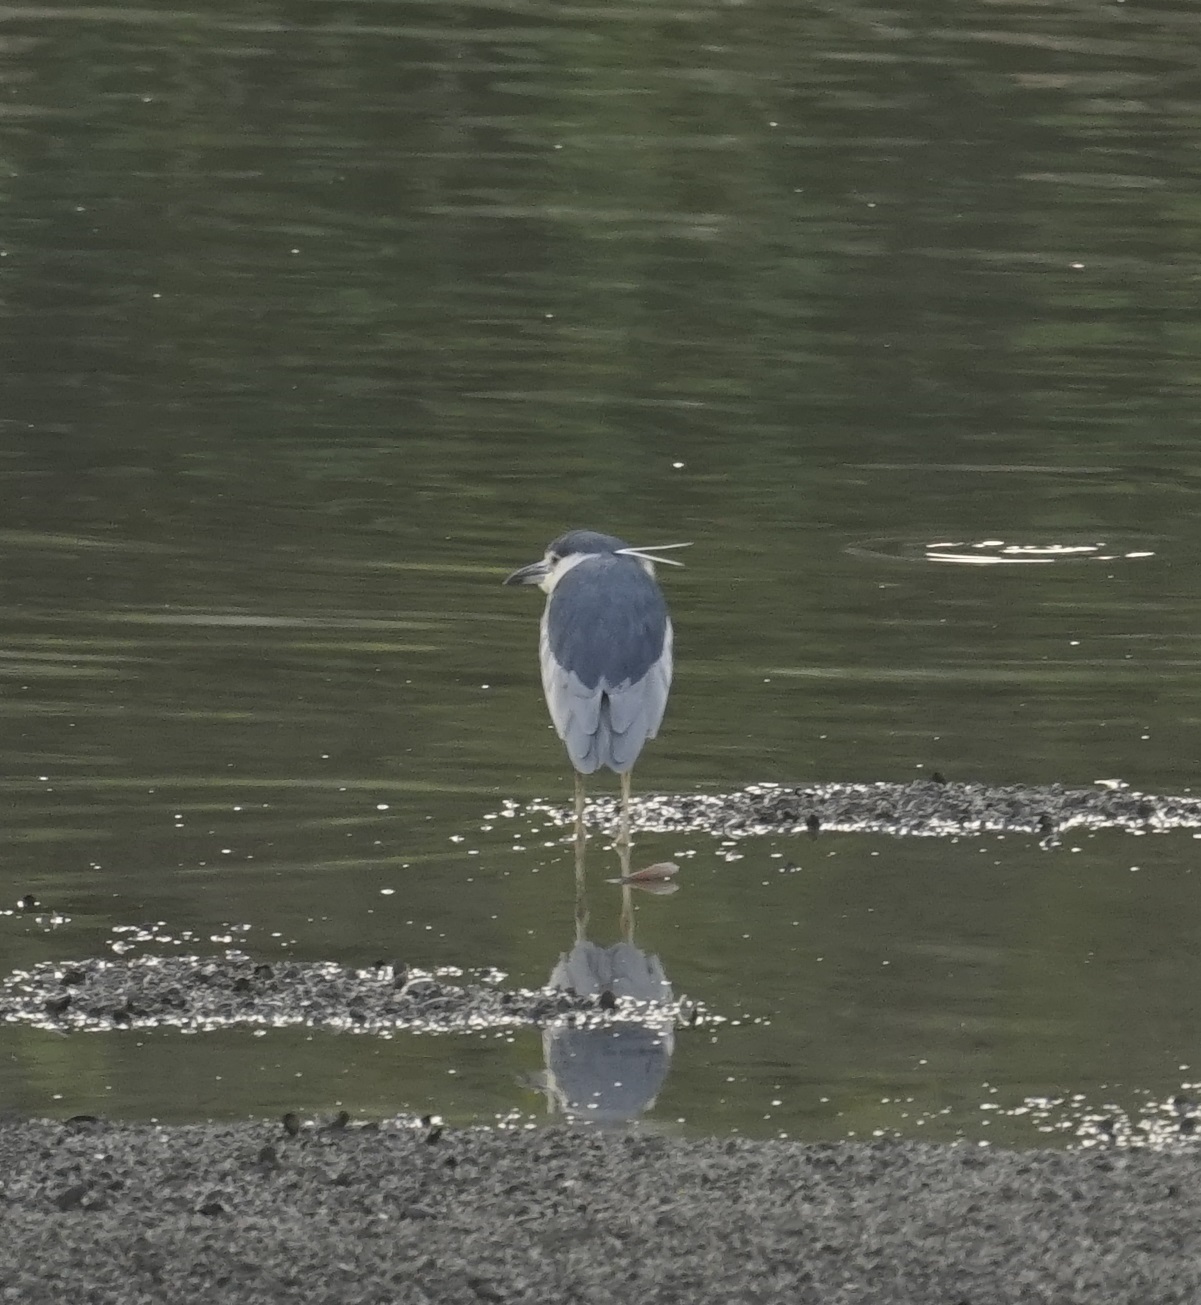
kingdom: Animalia
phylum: Chordata
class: Aves
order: Pelecaniformes
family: Ardeidae
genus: Nycticorax
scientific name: Nycticorax nycticorax
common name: Black-crowned night heron
